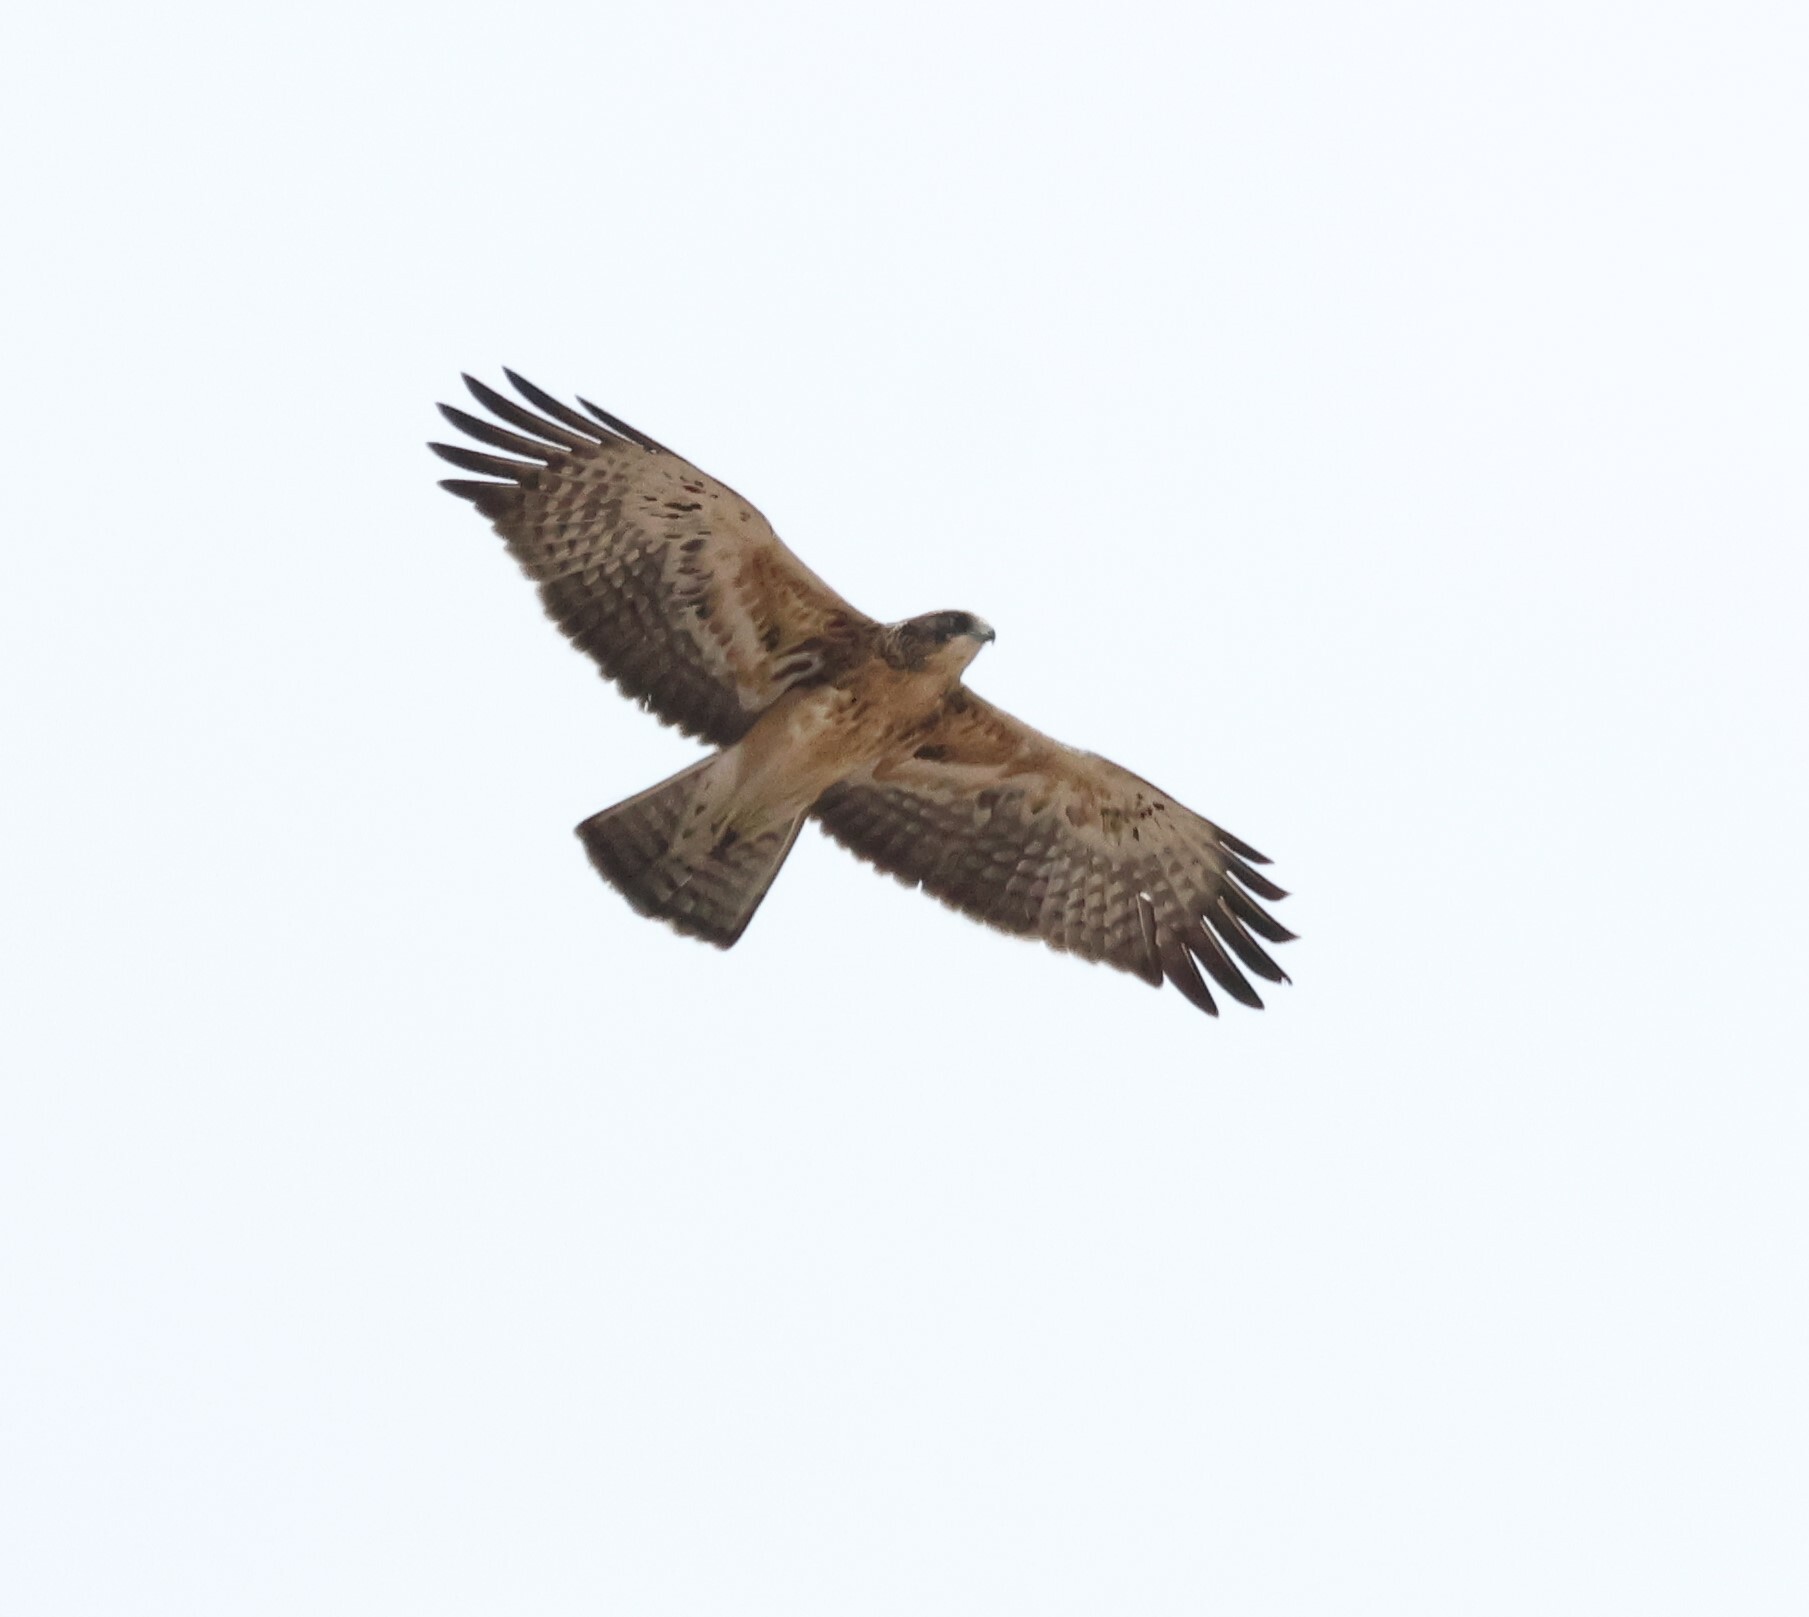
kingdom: Animalia
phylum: Chordata
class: Aves
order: Accipitriformes
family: Accipitridae
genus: Hieraaetus
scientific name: Hieraaetus ayresii
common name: Ayres's hawk-eagle
